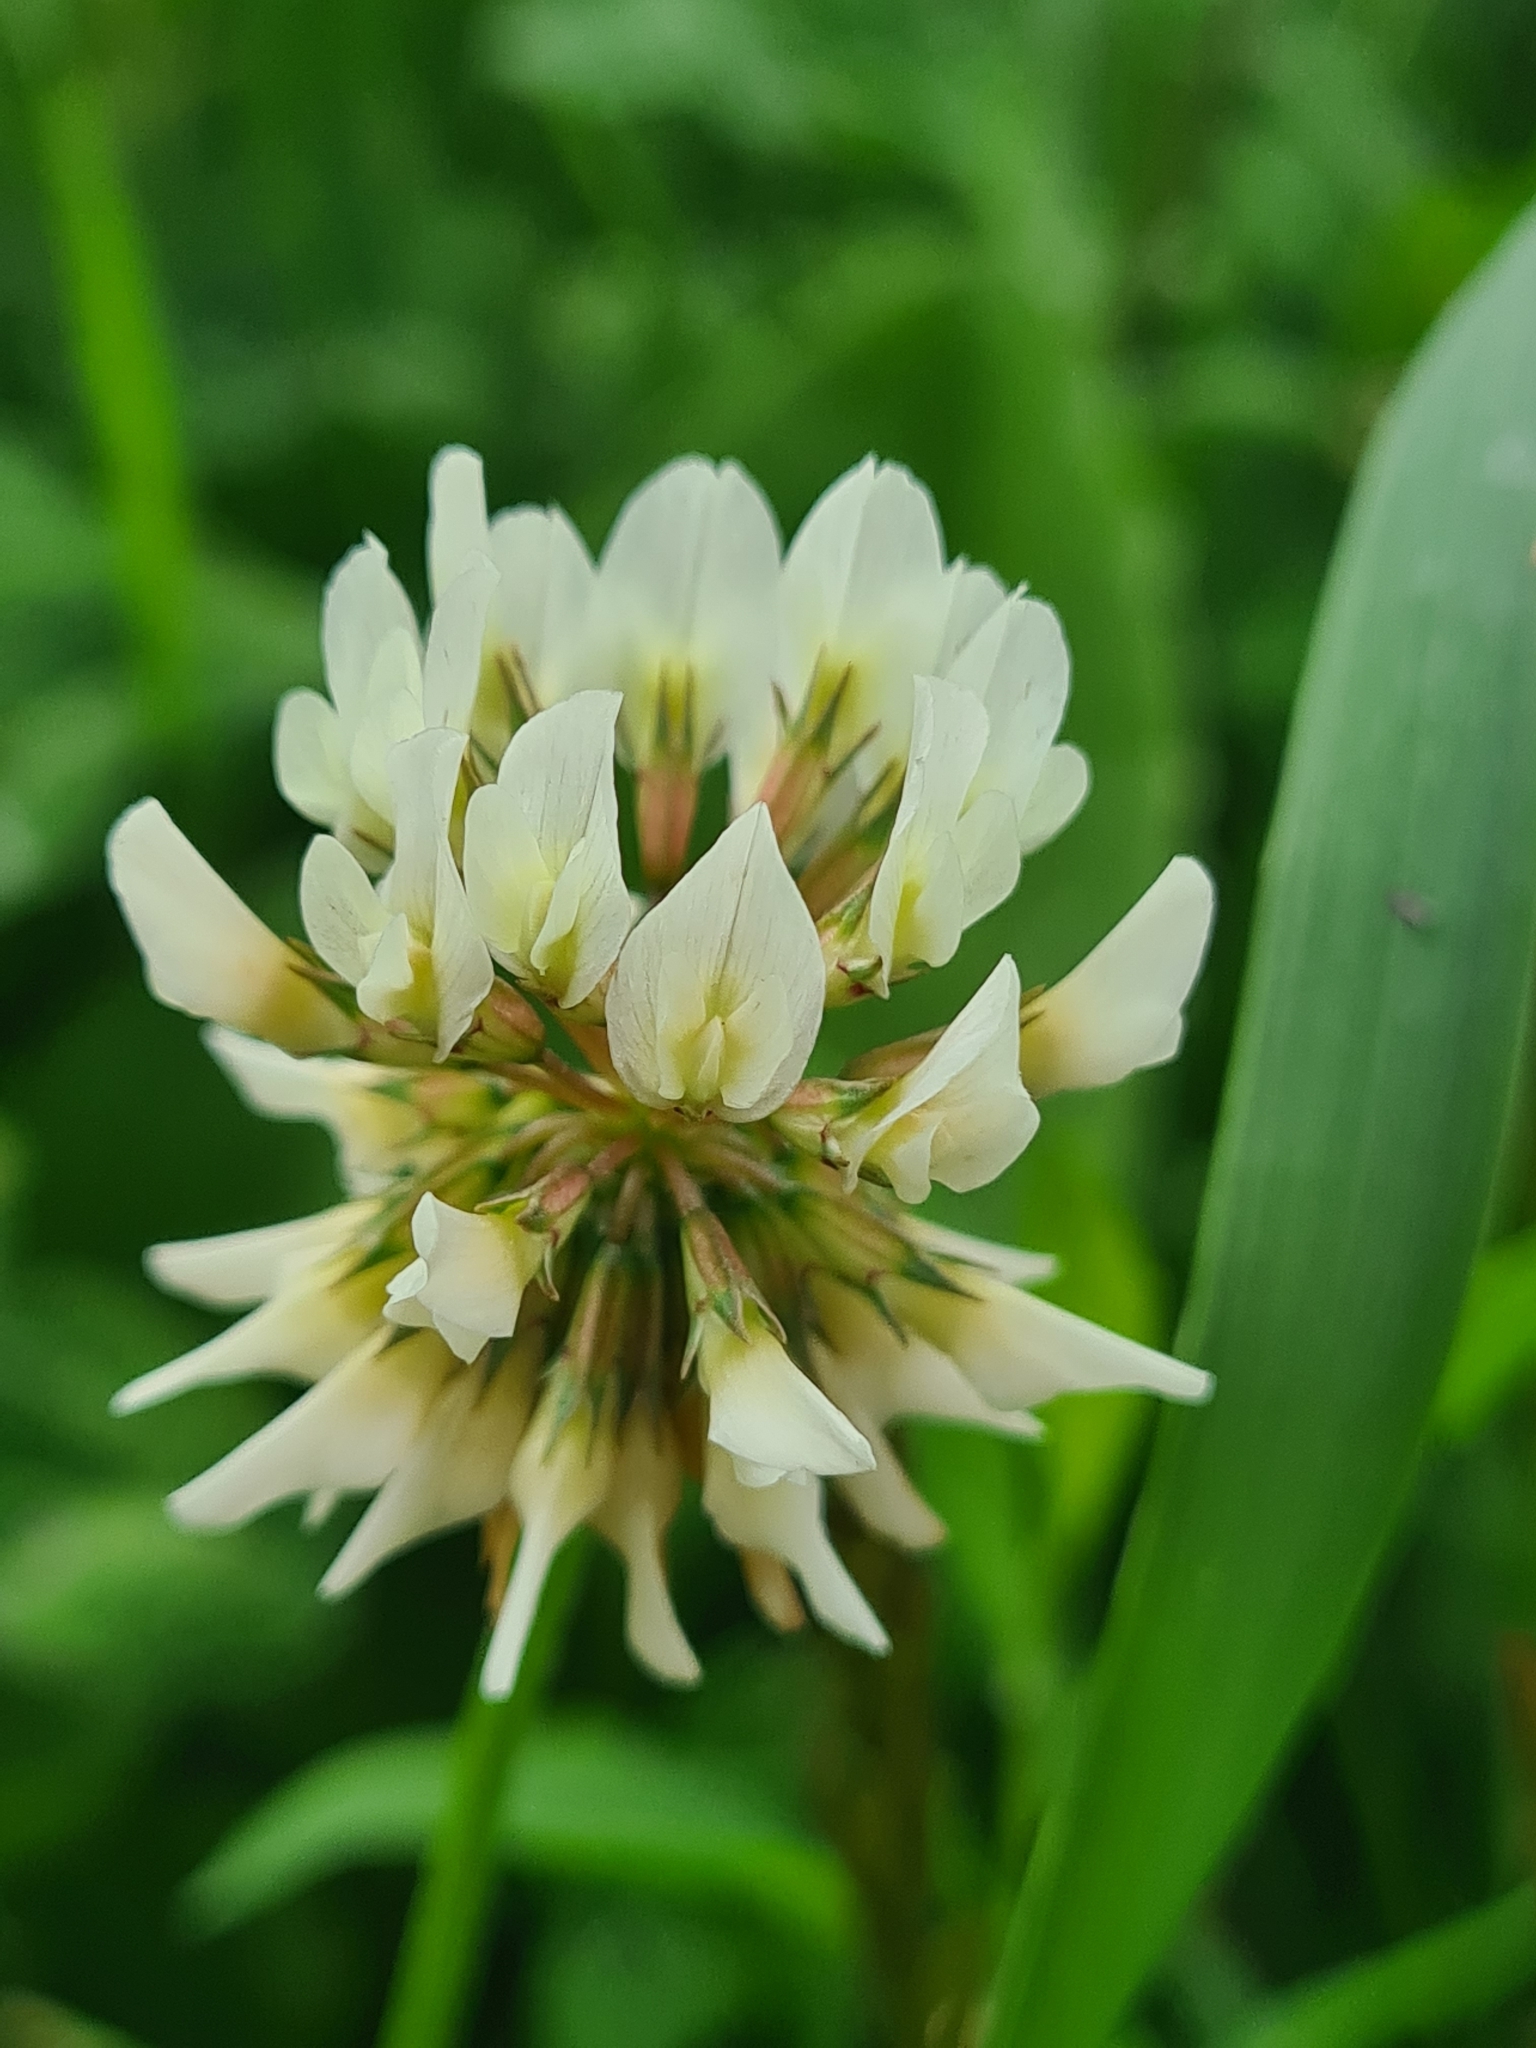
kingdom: Plantae
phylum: Tracheophyta
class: Magnoliopsida
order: Fabales
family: Fabaceae
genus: Trifolium
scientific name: Trifolium repens
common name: White clover
